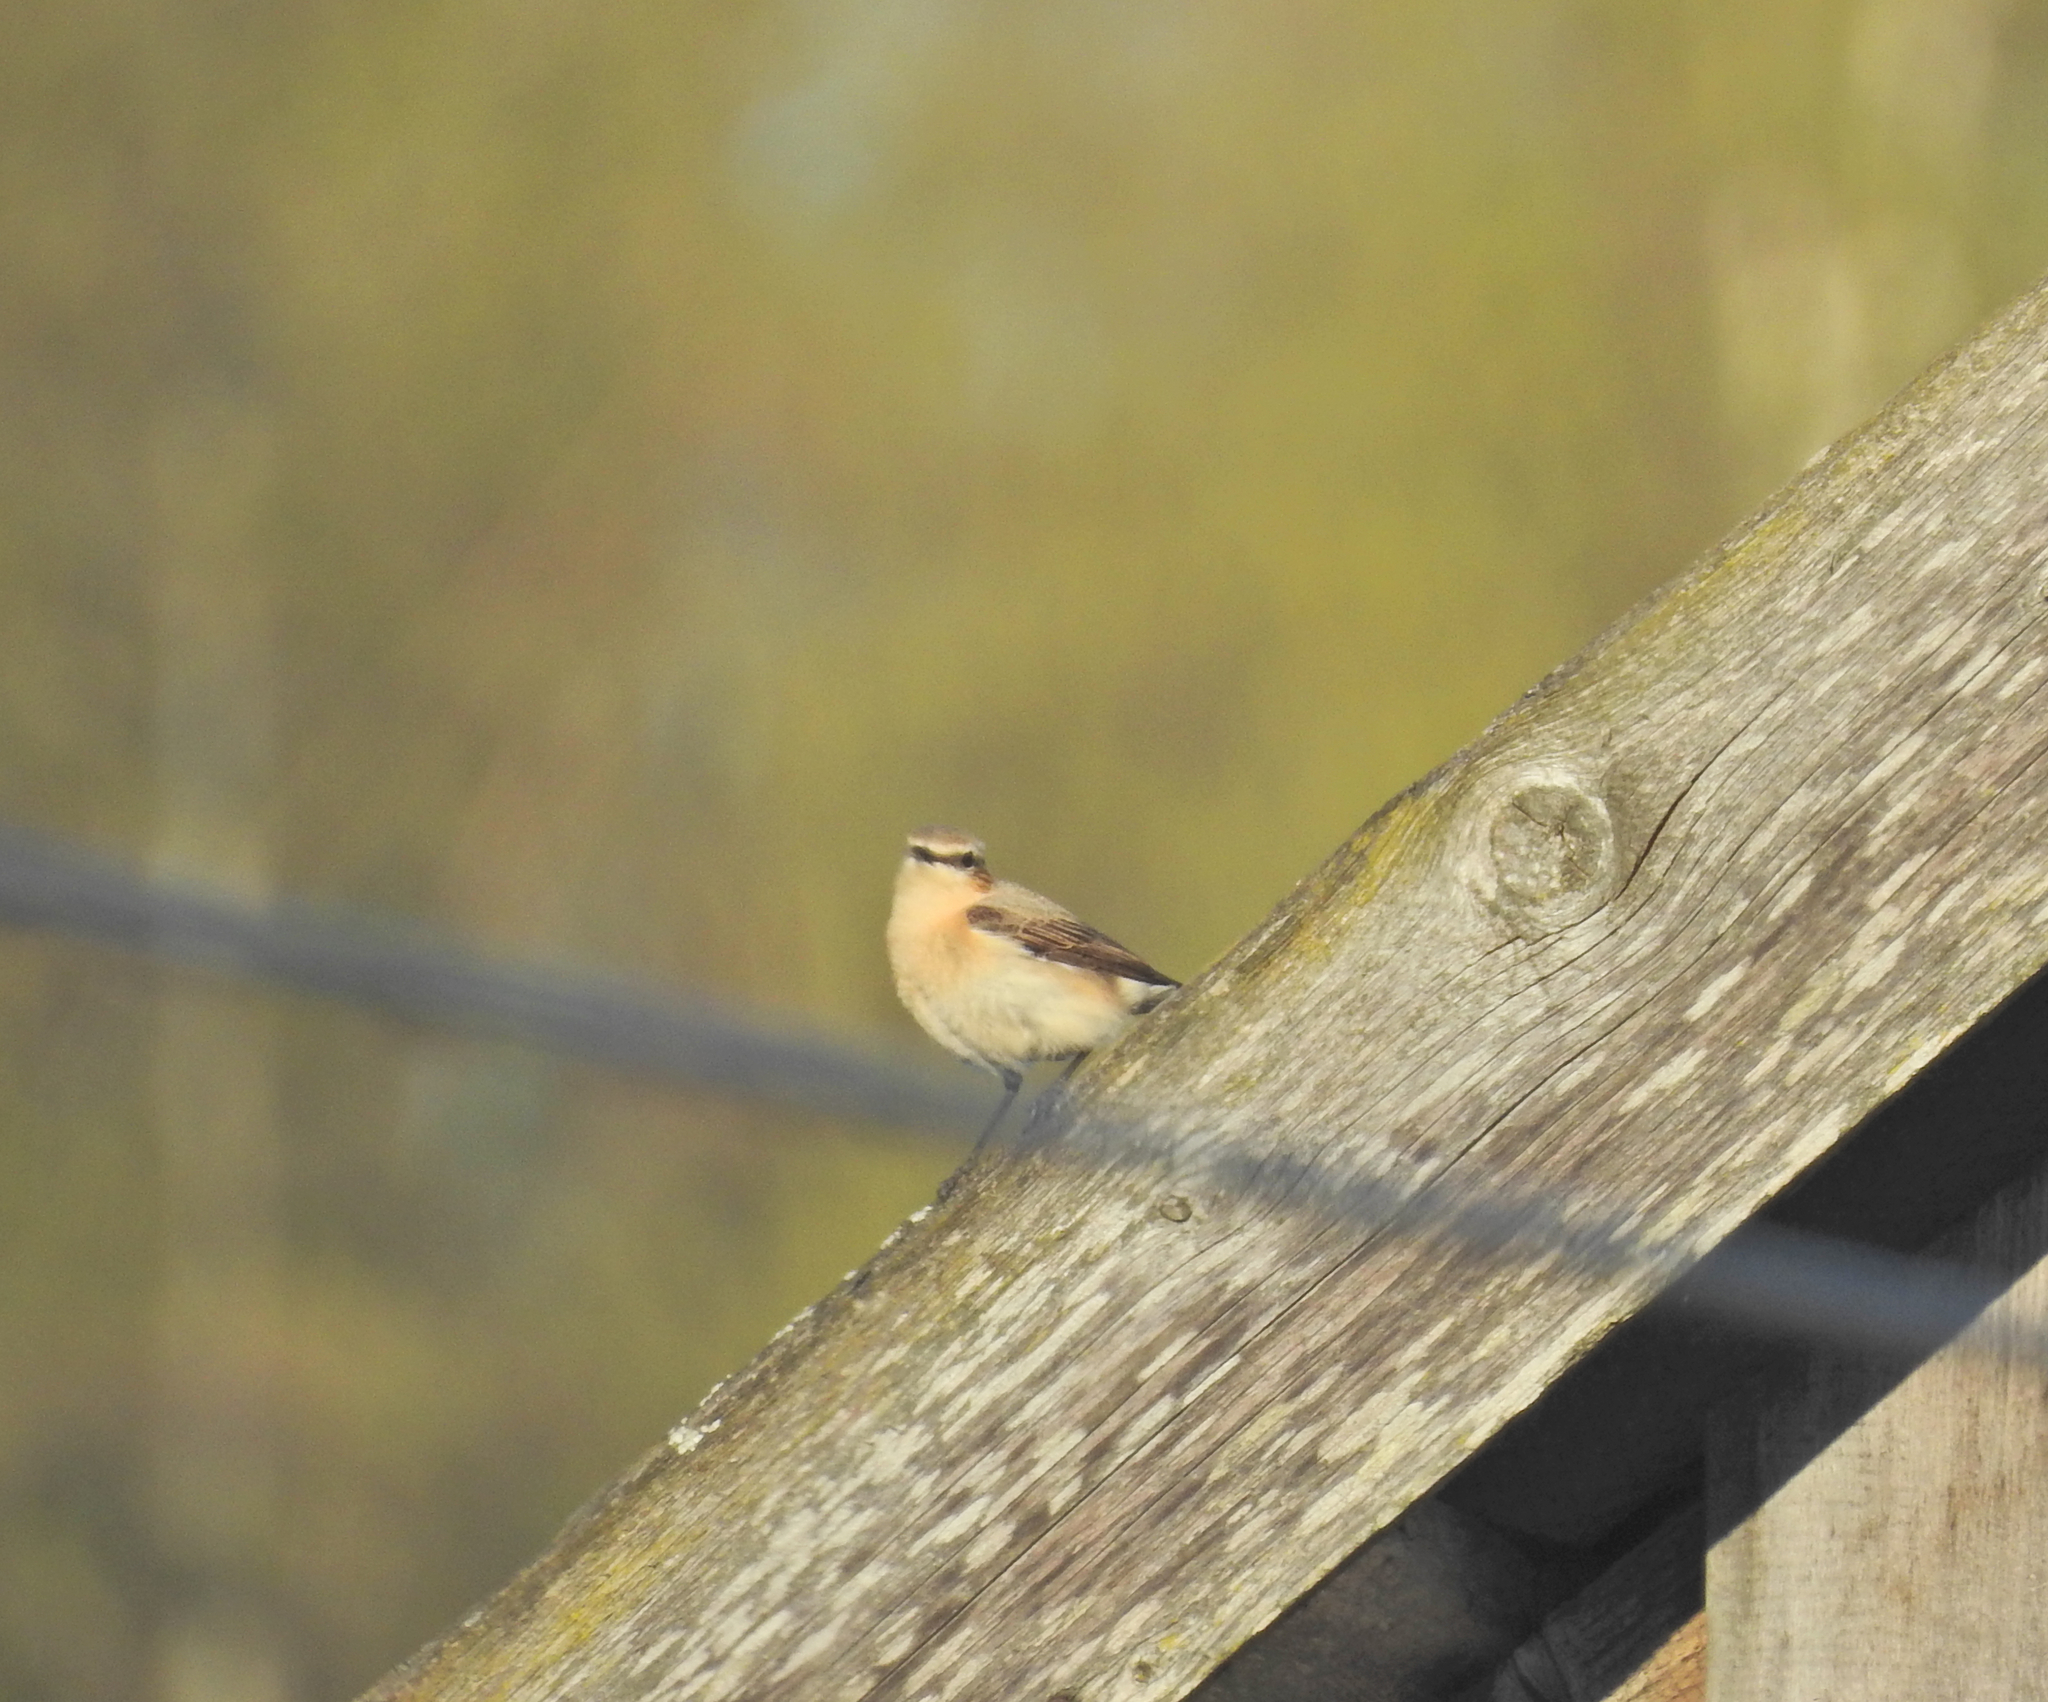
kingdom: Animalia
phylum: Chordata
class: Aves
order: Passeriformes
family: Muscicapidae
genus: Oenanthe
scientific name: Oenanthe oenanthe
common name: Northern wheatear
